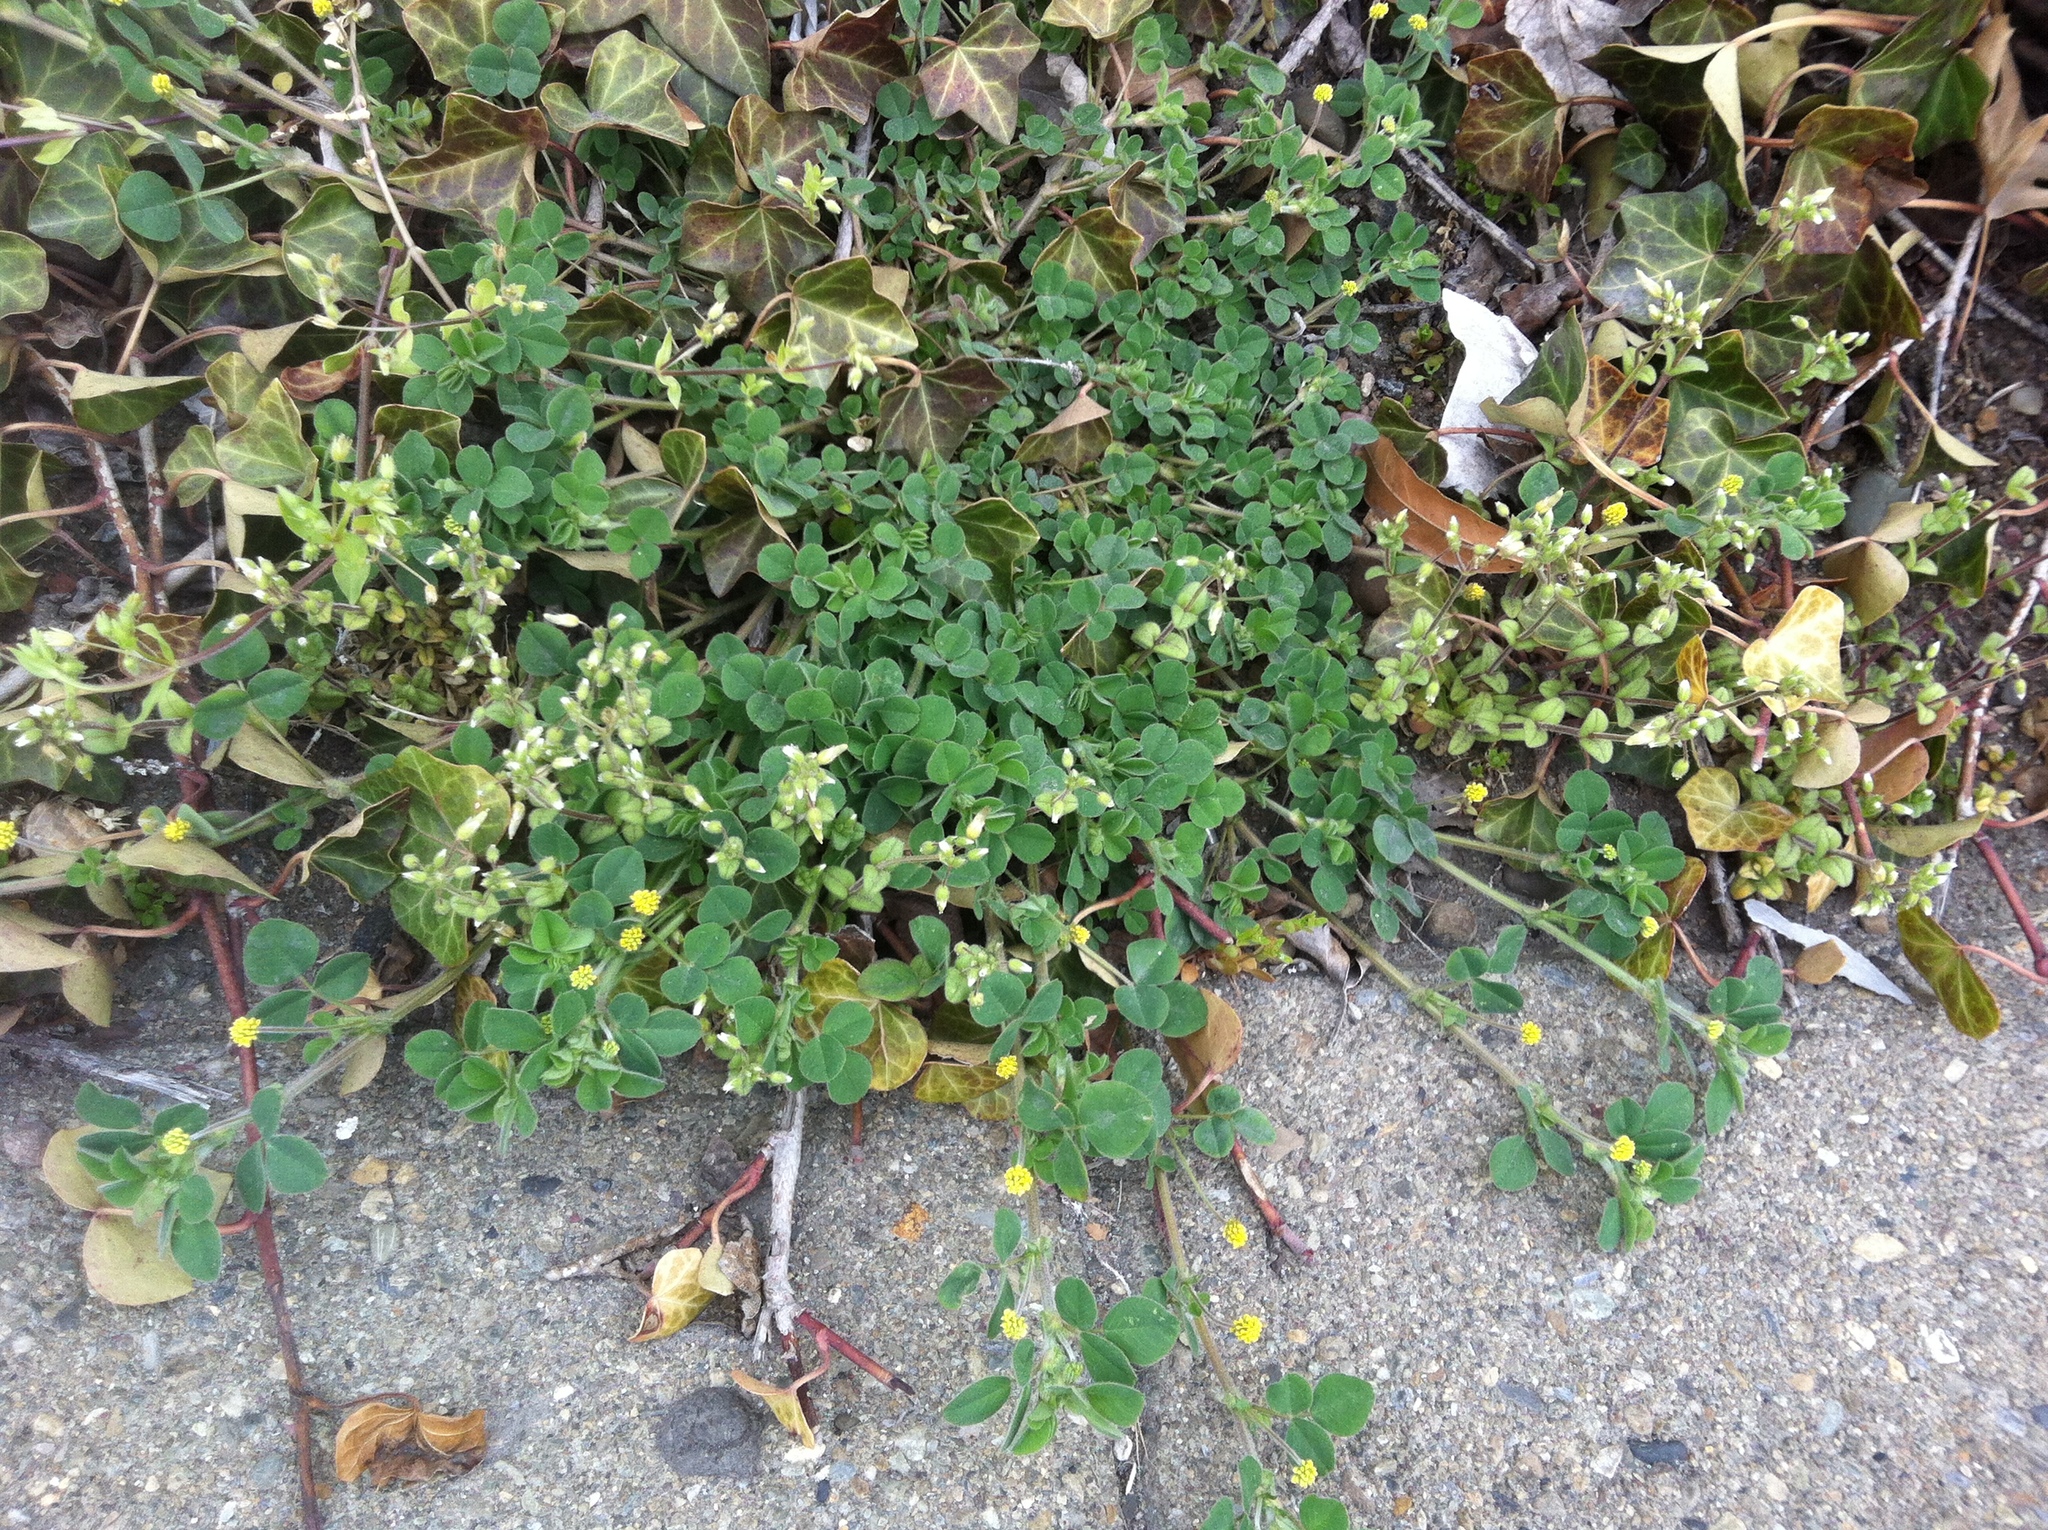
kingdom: Plantae
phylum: Tracheophyta
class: Magnoliopsida
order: Fabales
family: Fabaceae
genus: Medicago
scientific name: Medicago lupulina
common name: Black medick
